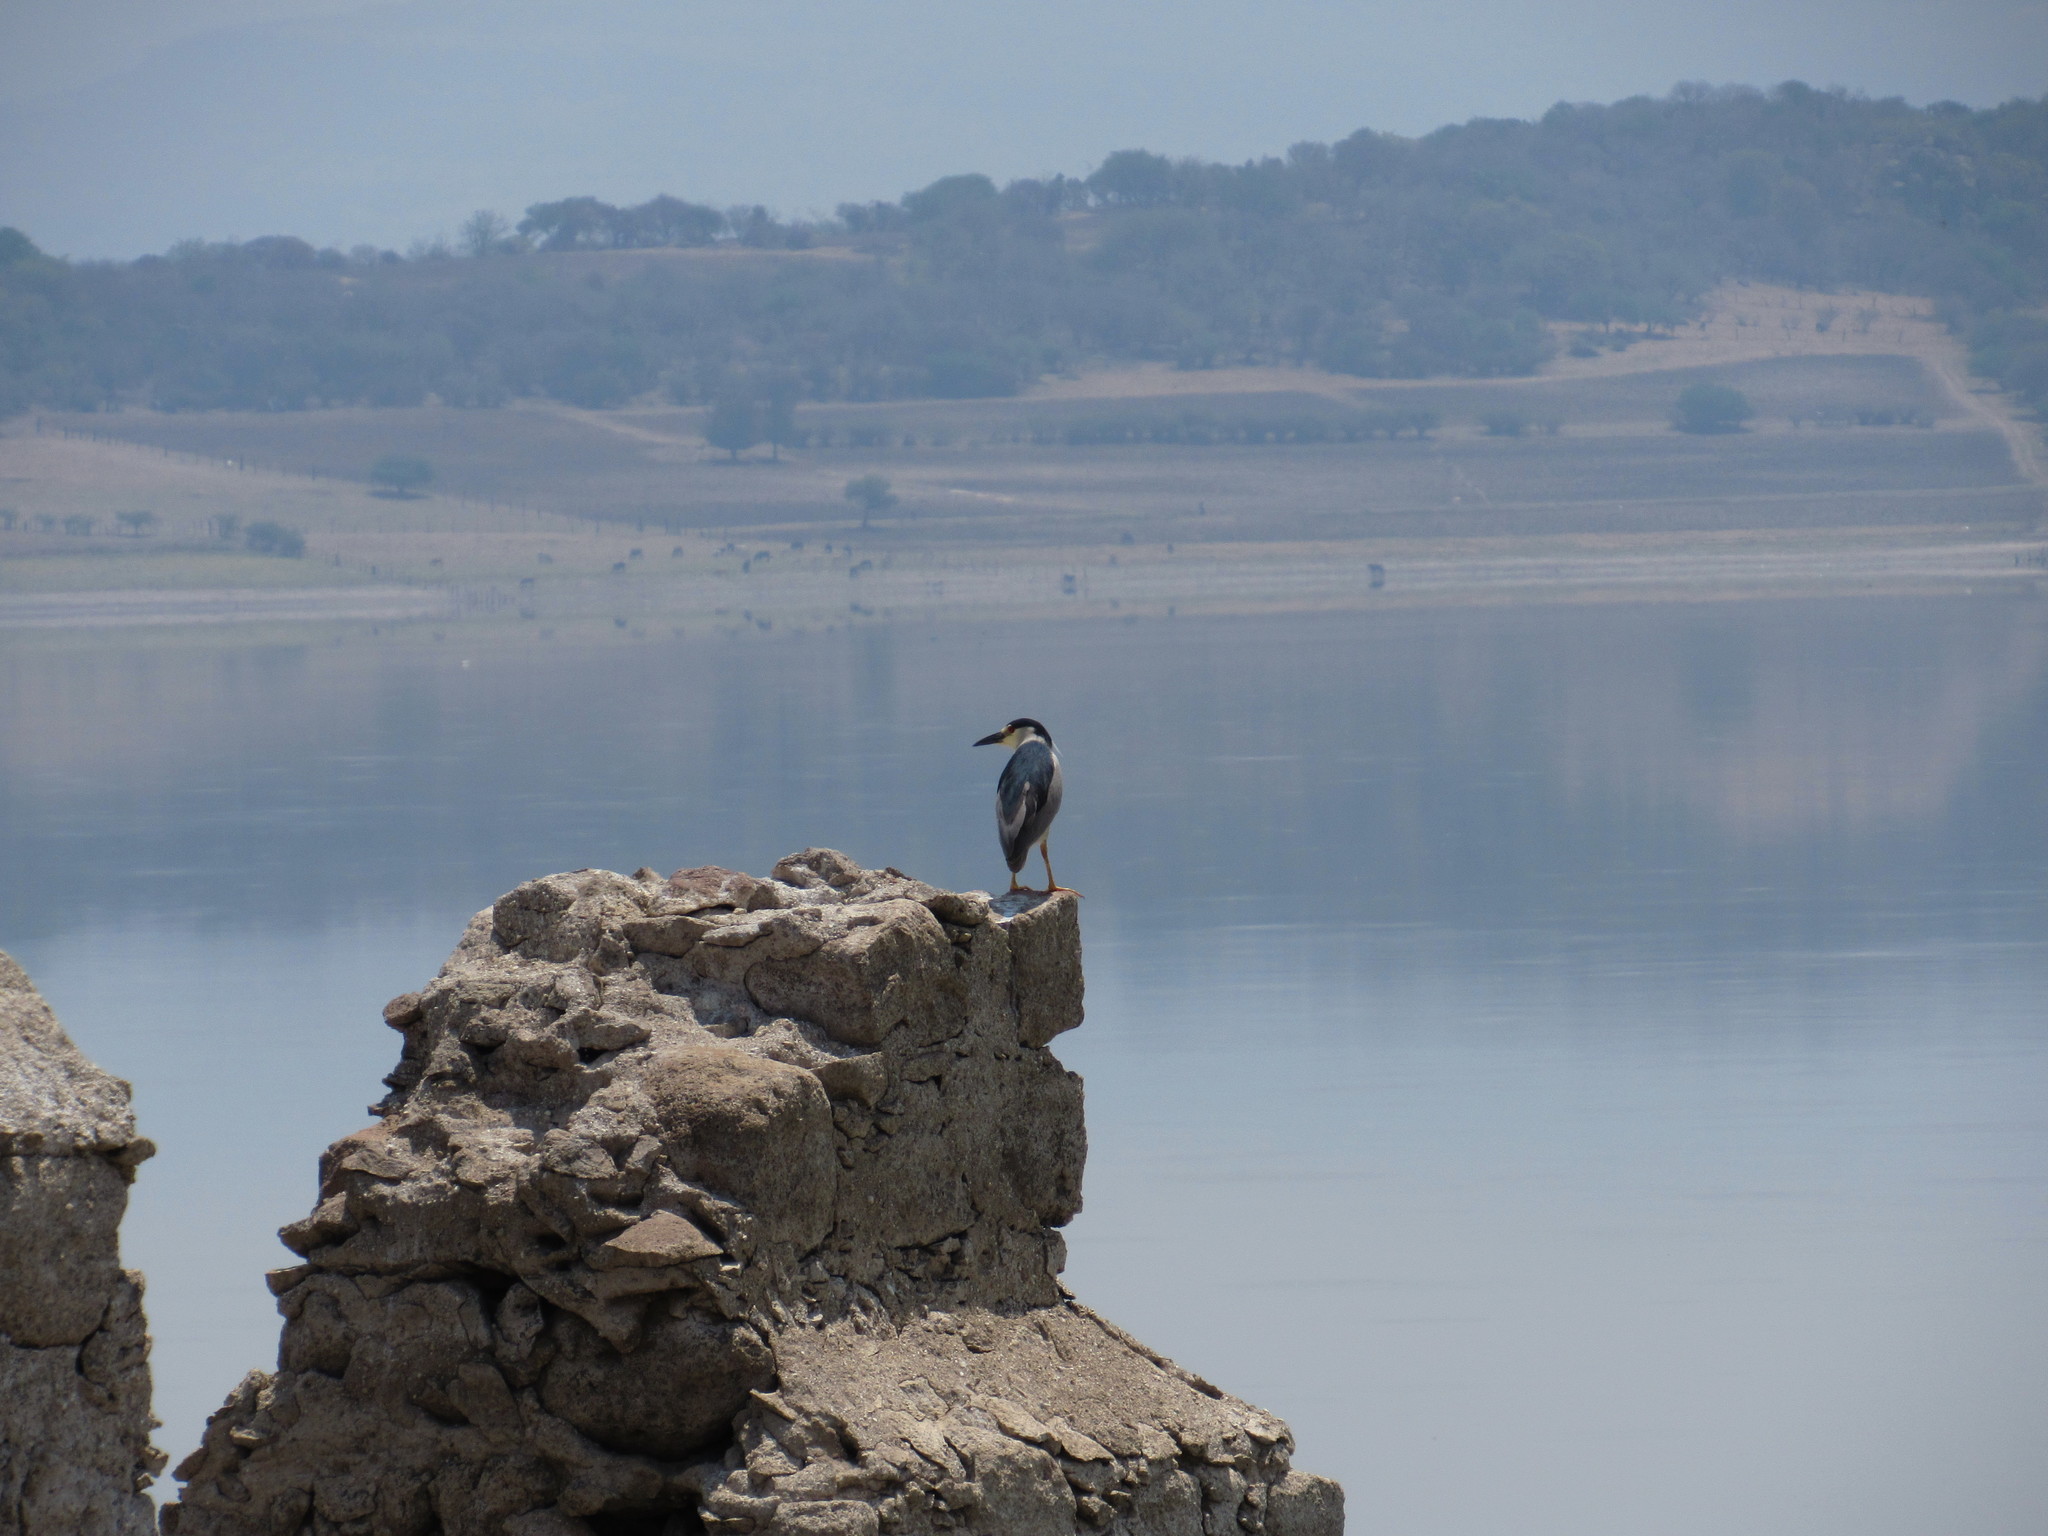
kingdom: Animalia
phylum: Chordata
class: Aves
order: Pelecaniformes
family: Ardeidae
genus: Nycticorax
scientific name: Nycticorax nycticorax
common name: Black-crowned night heron
